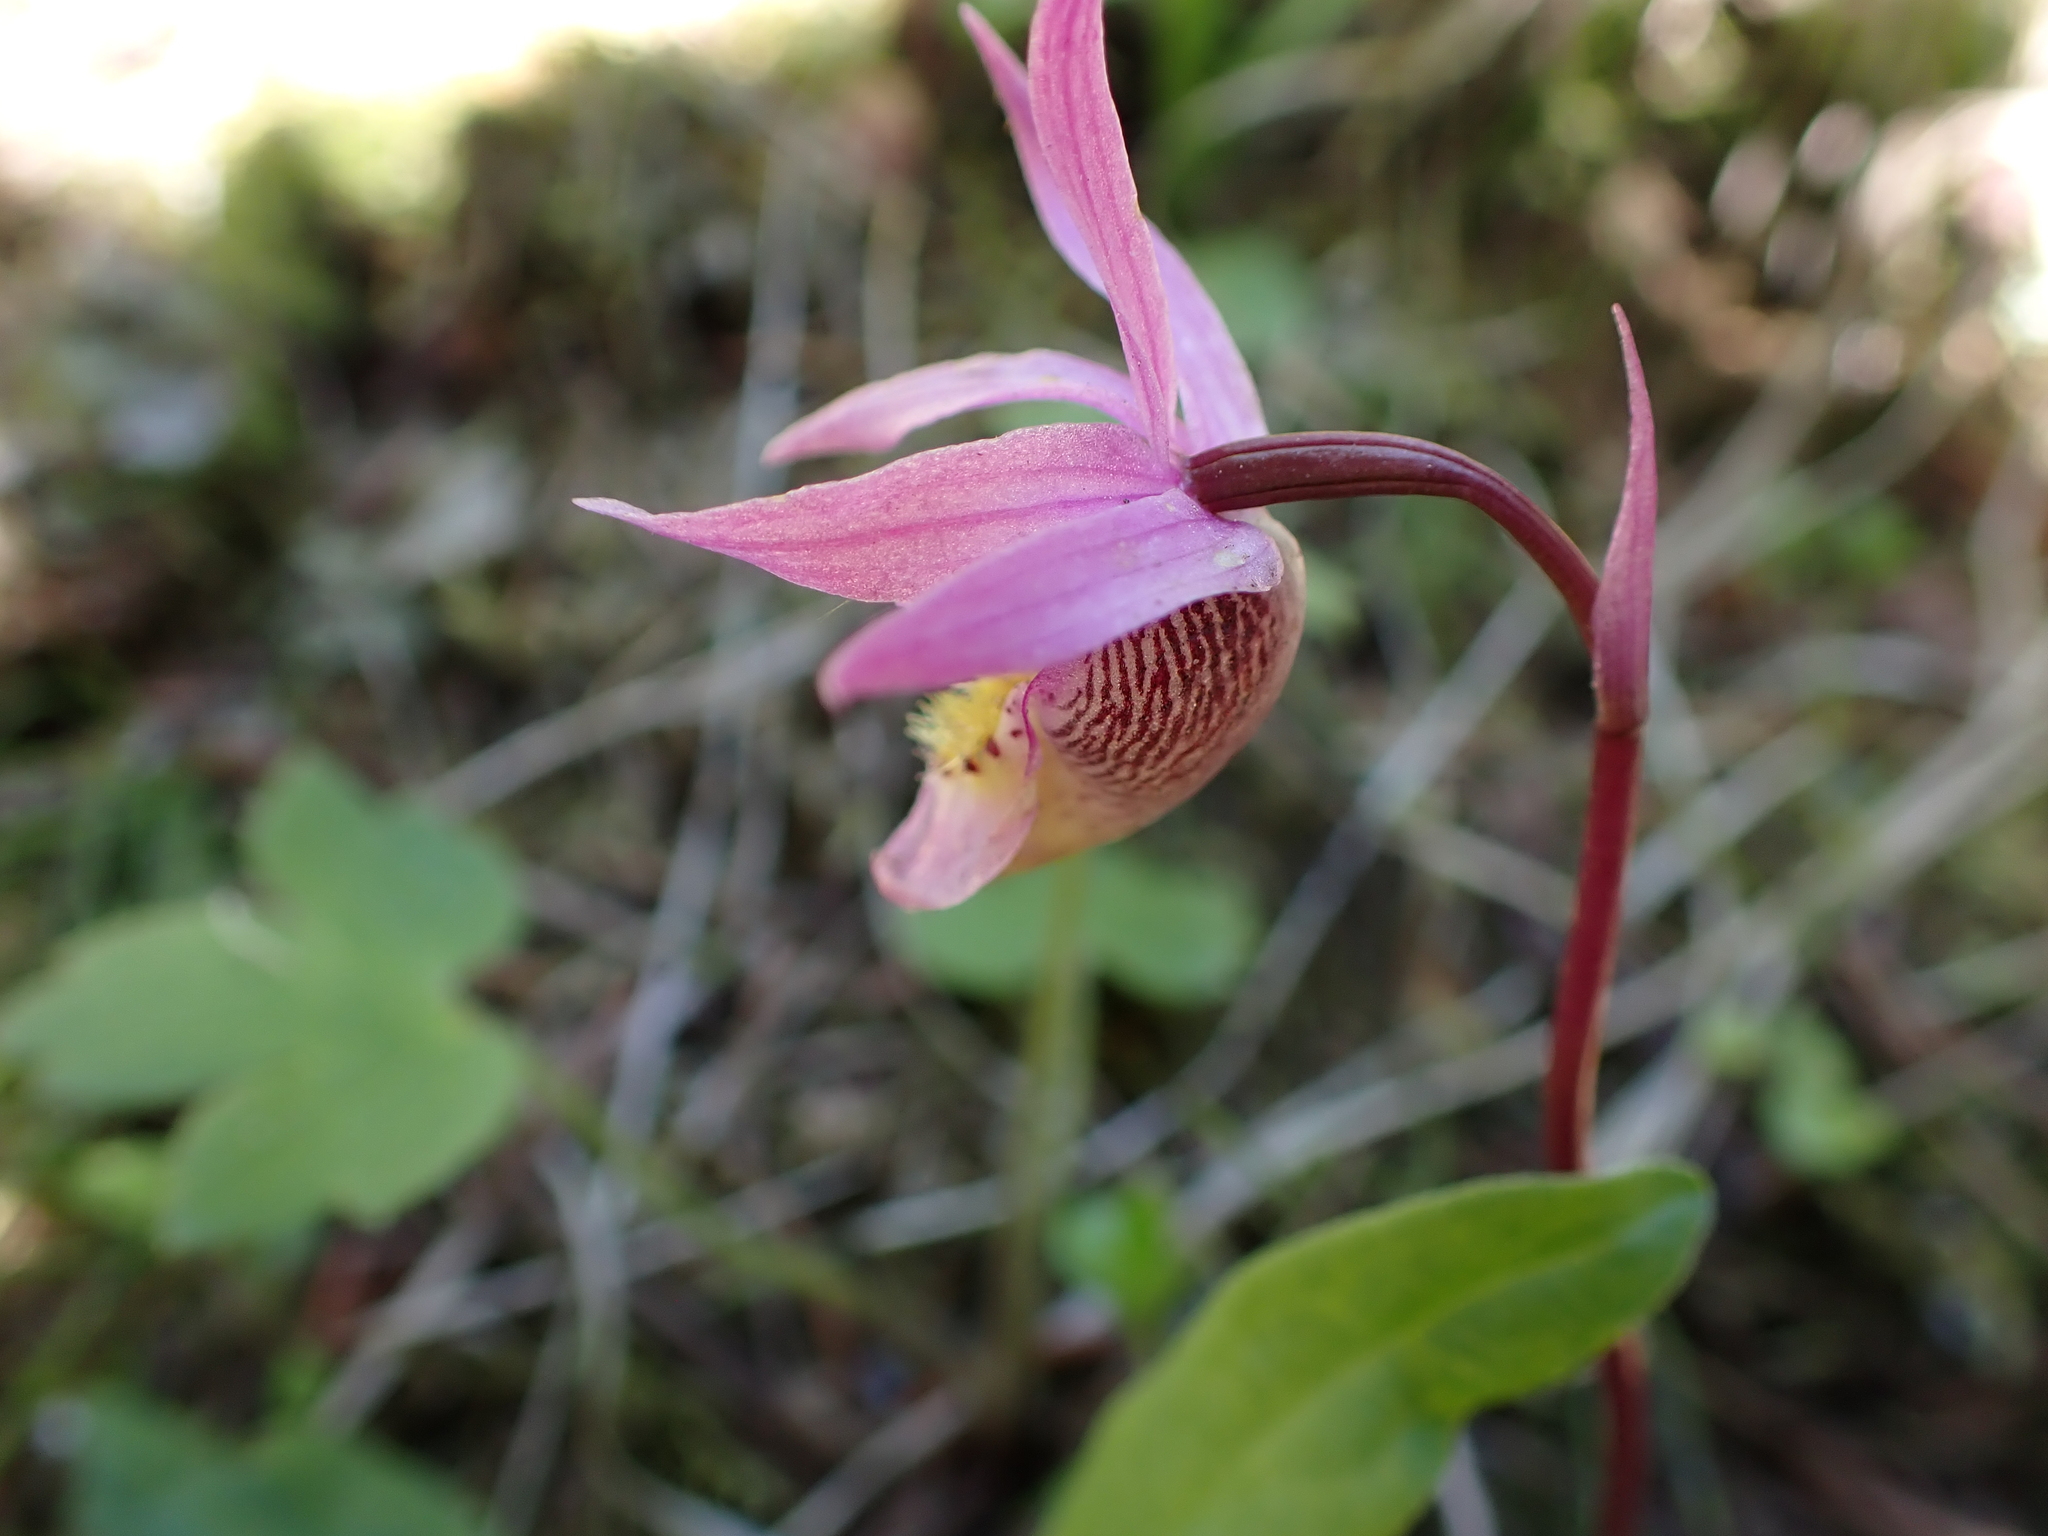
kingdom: Plantae
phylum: Tracheophyta
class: Liliopsida
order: Asparagales
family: Orchidaceae
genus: Calypso
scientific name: Calypso bulbosa
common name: Calypso
